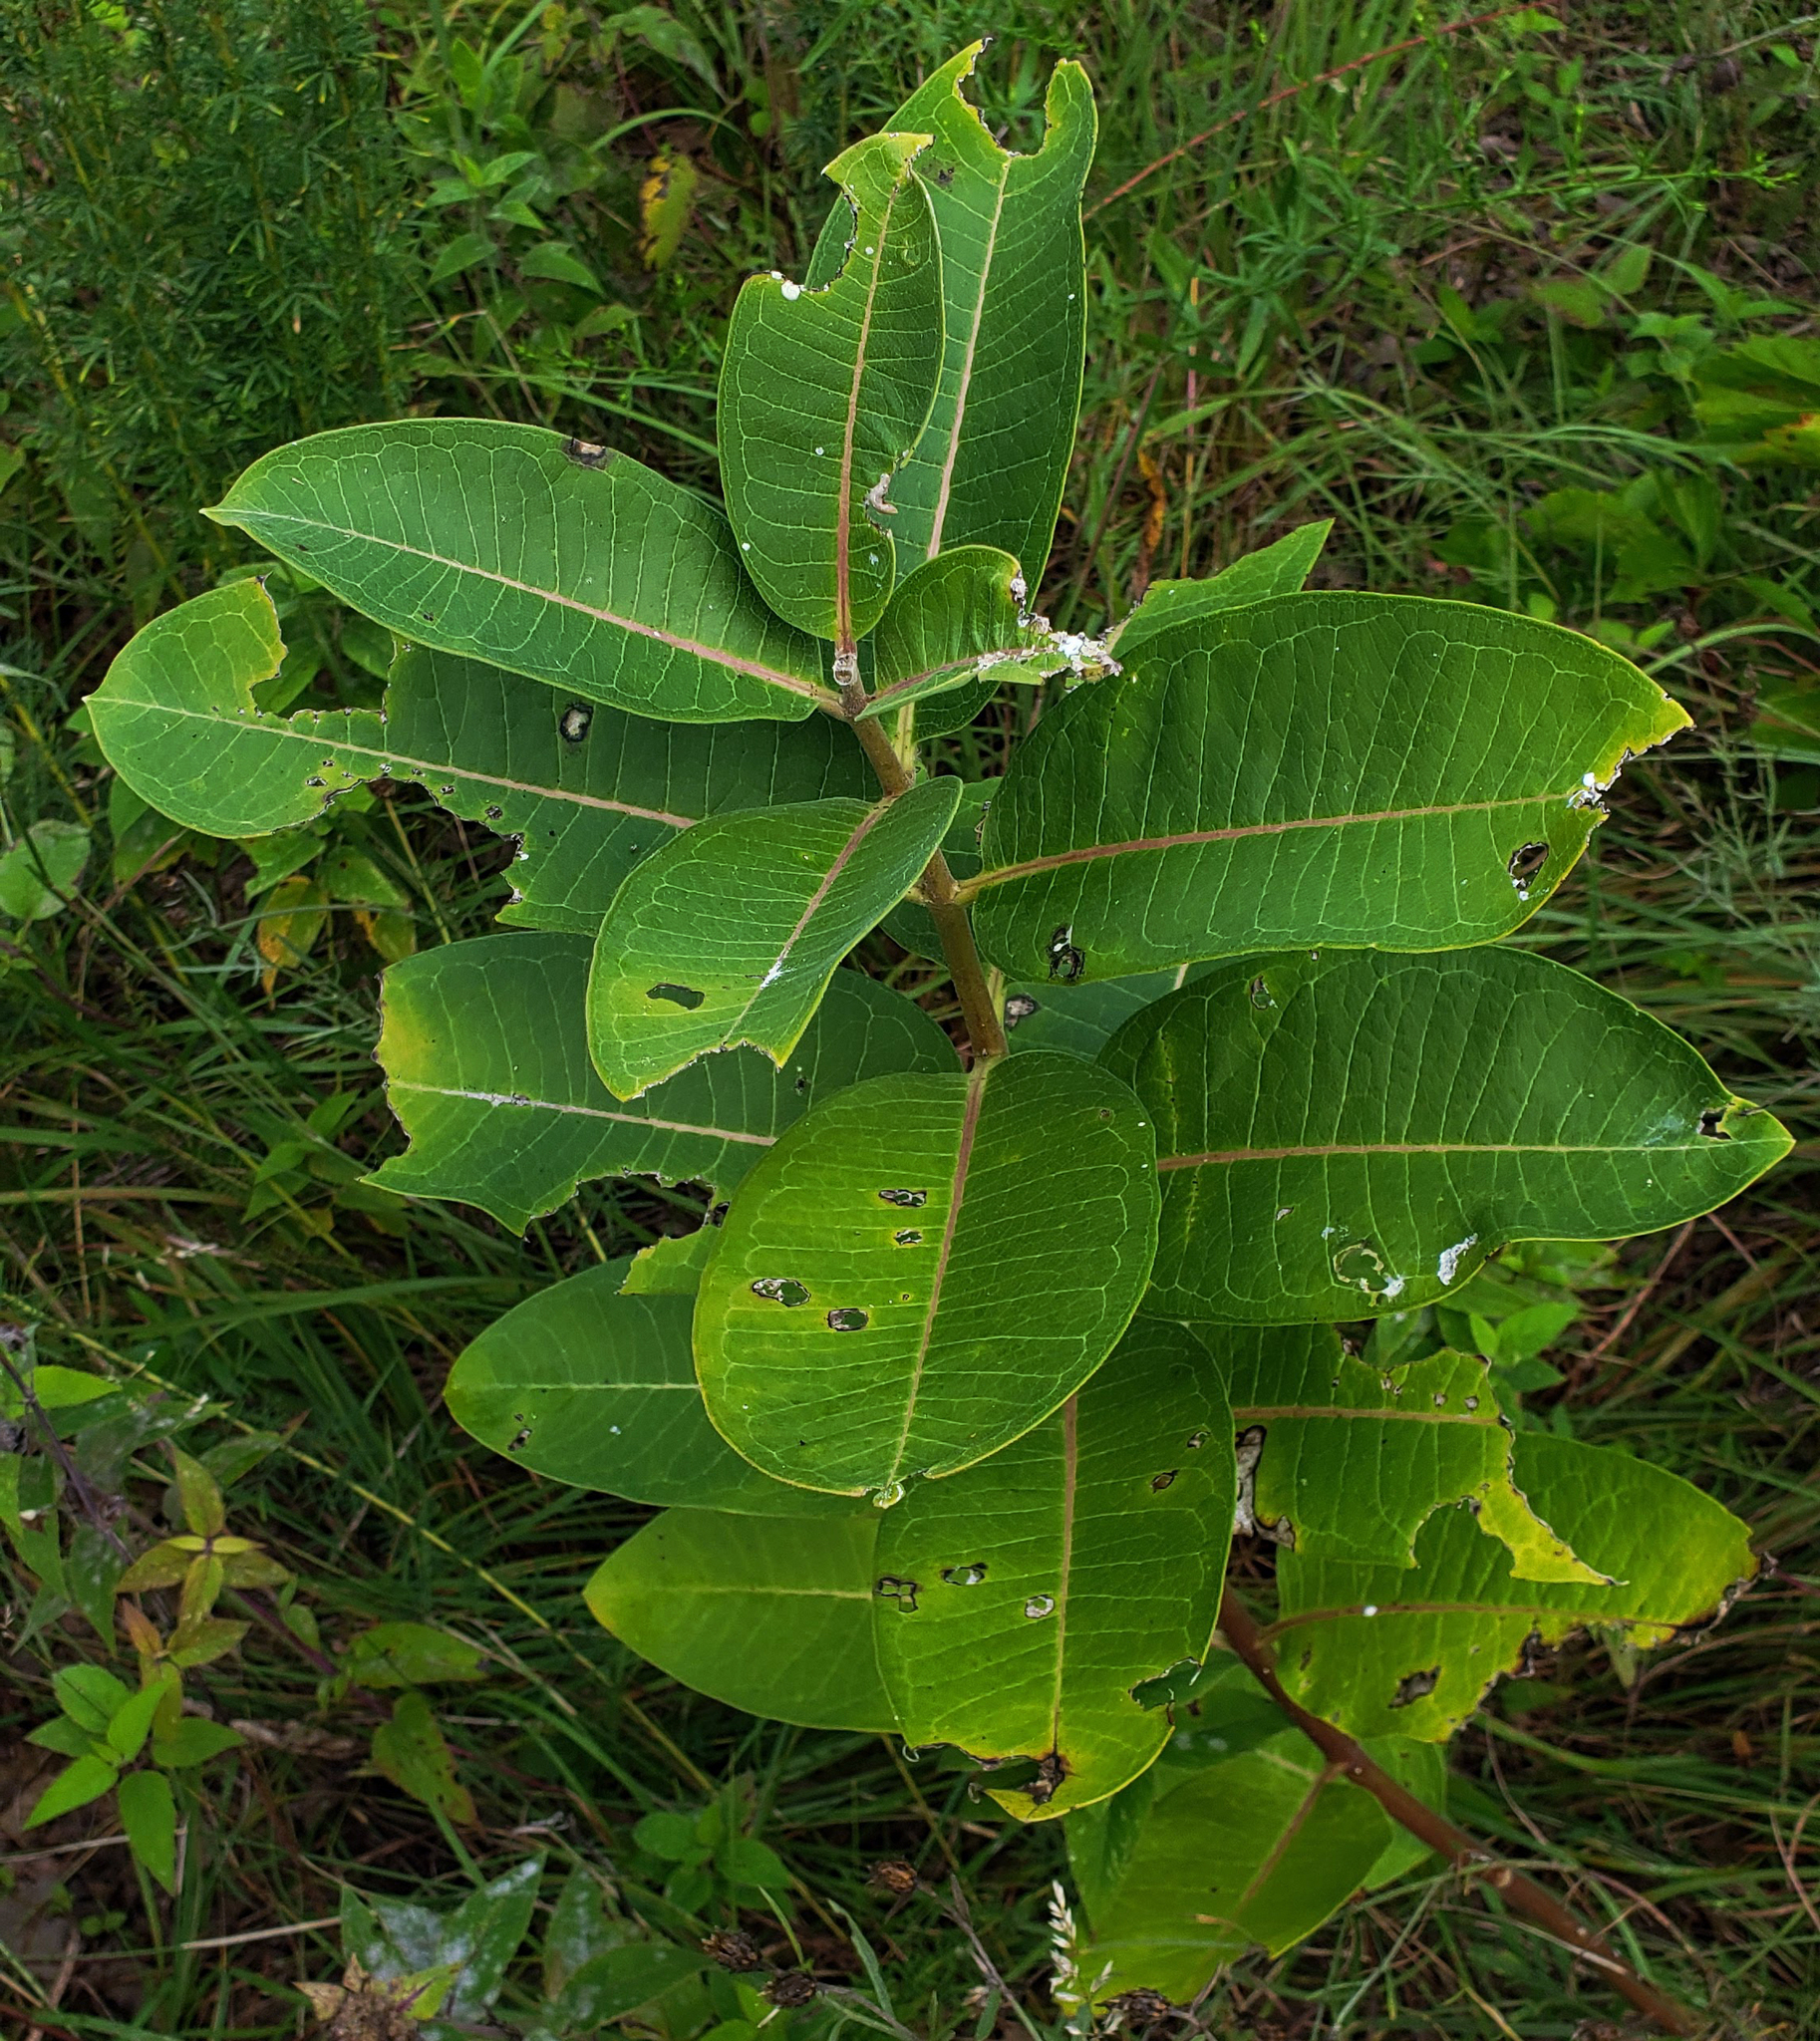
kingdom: Plantae
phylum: Tracheophyta
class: Magnoliopsida
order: Gentianales
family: Apocynaceae
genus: Asclepias
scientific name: Asclepias syriaca
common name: Common milkweed
